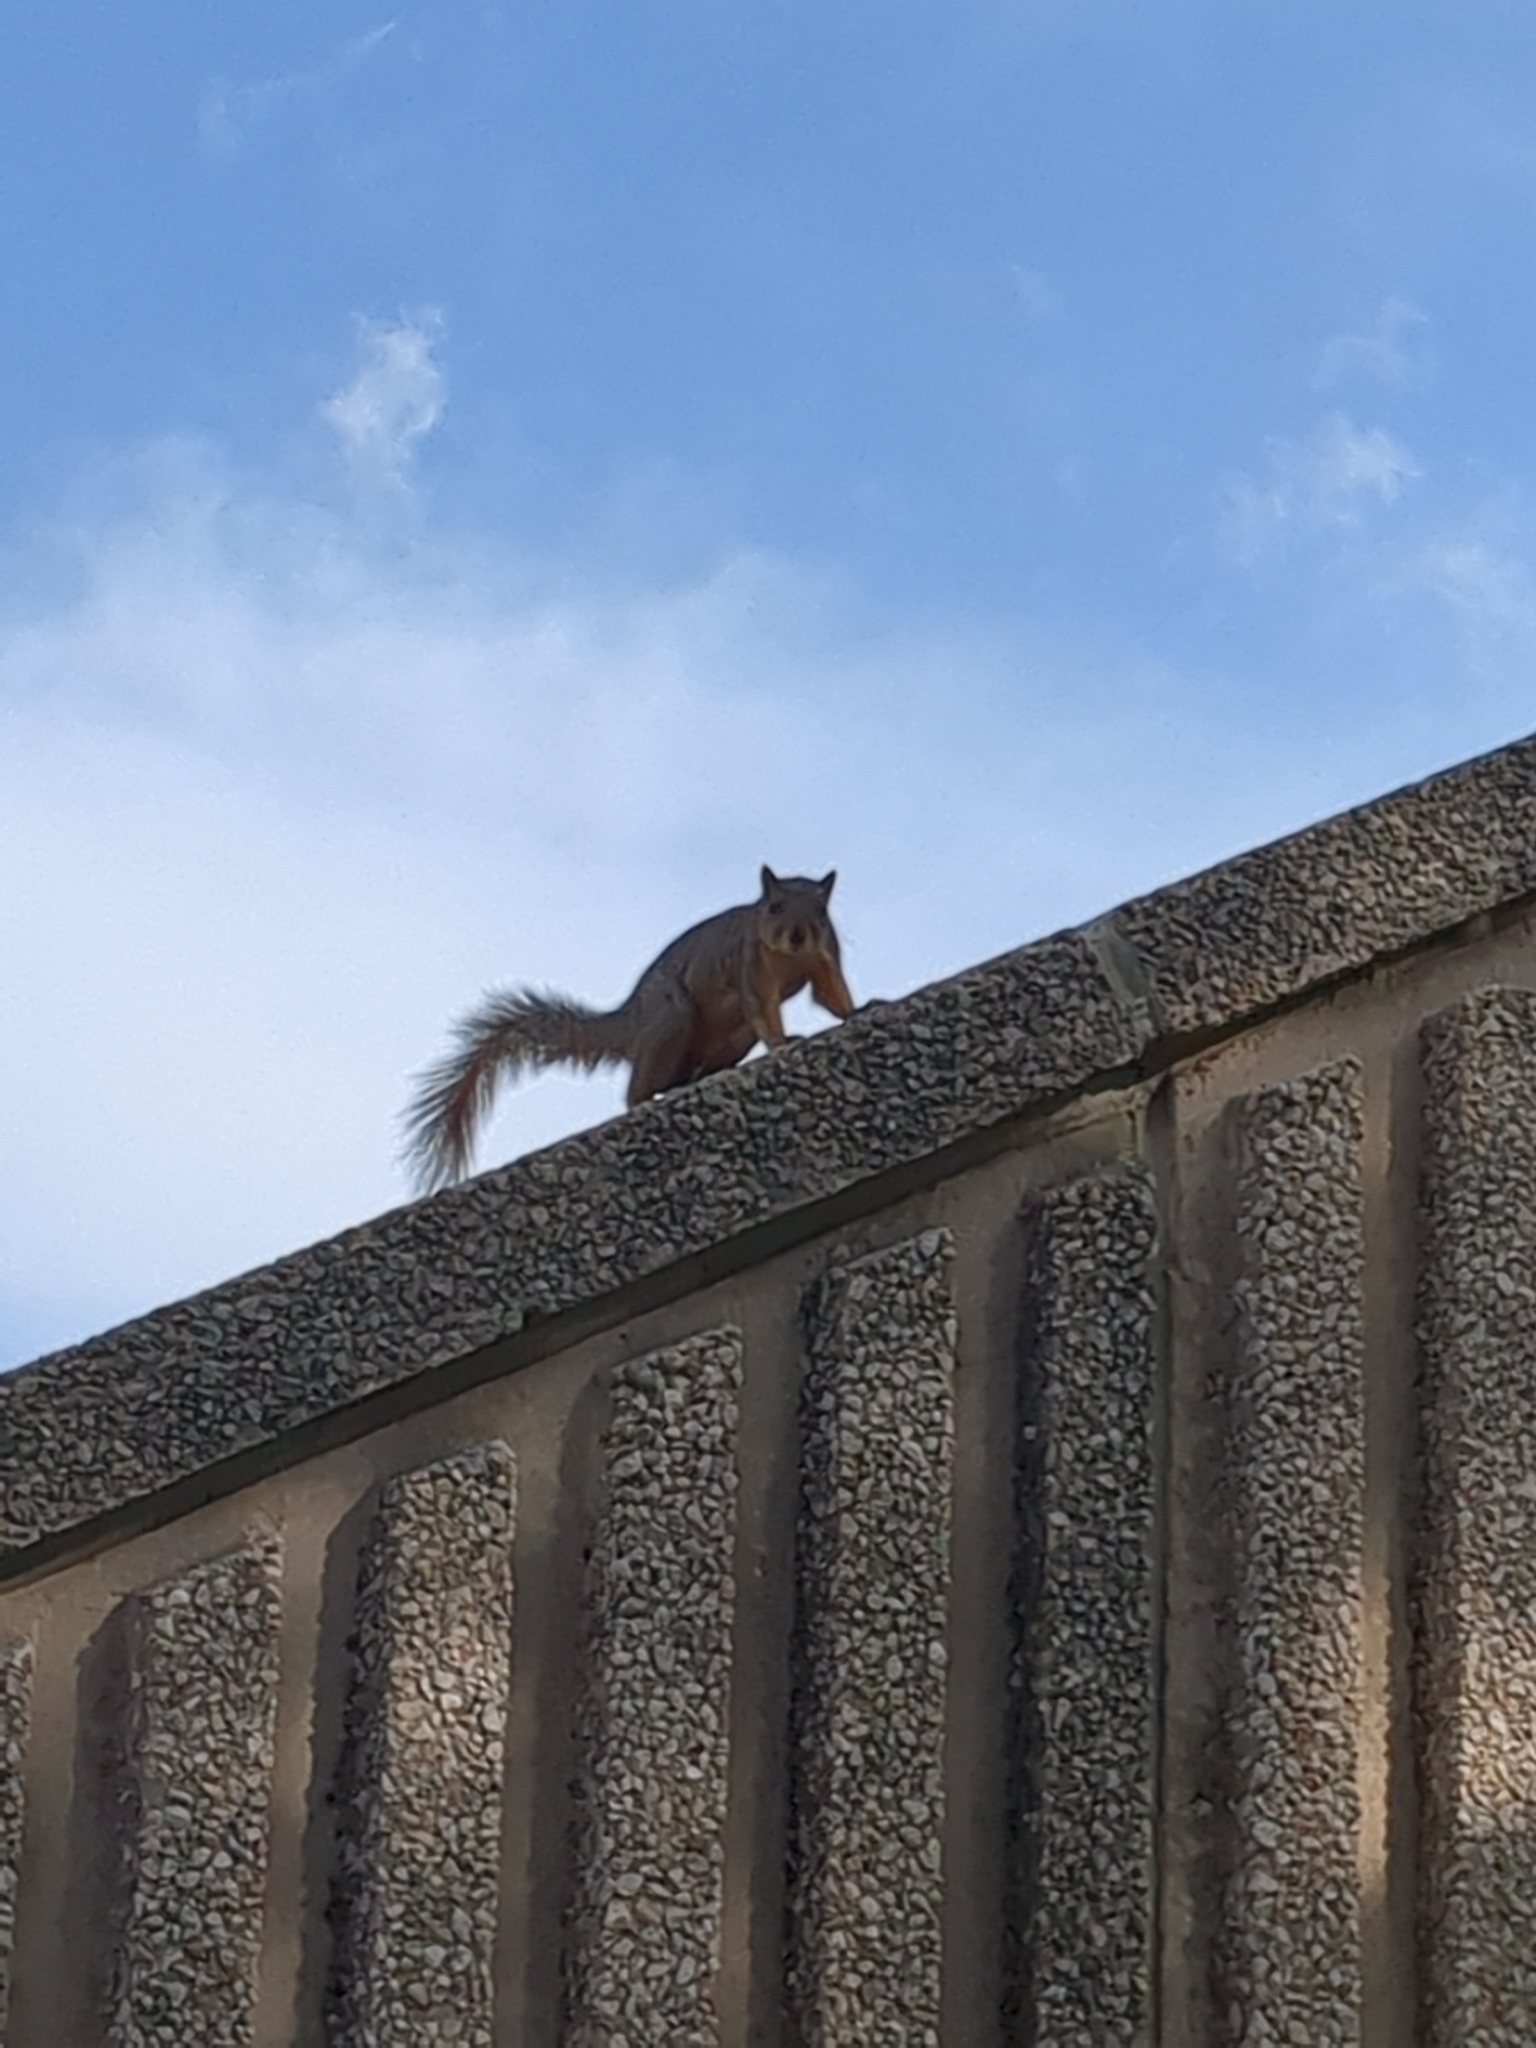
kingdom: Animalia
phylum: Chordata
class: Mammalia
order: Rodentia
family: Sciuridae
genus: Sciurus
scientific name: Sciurus niger
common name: Fox squirrel
